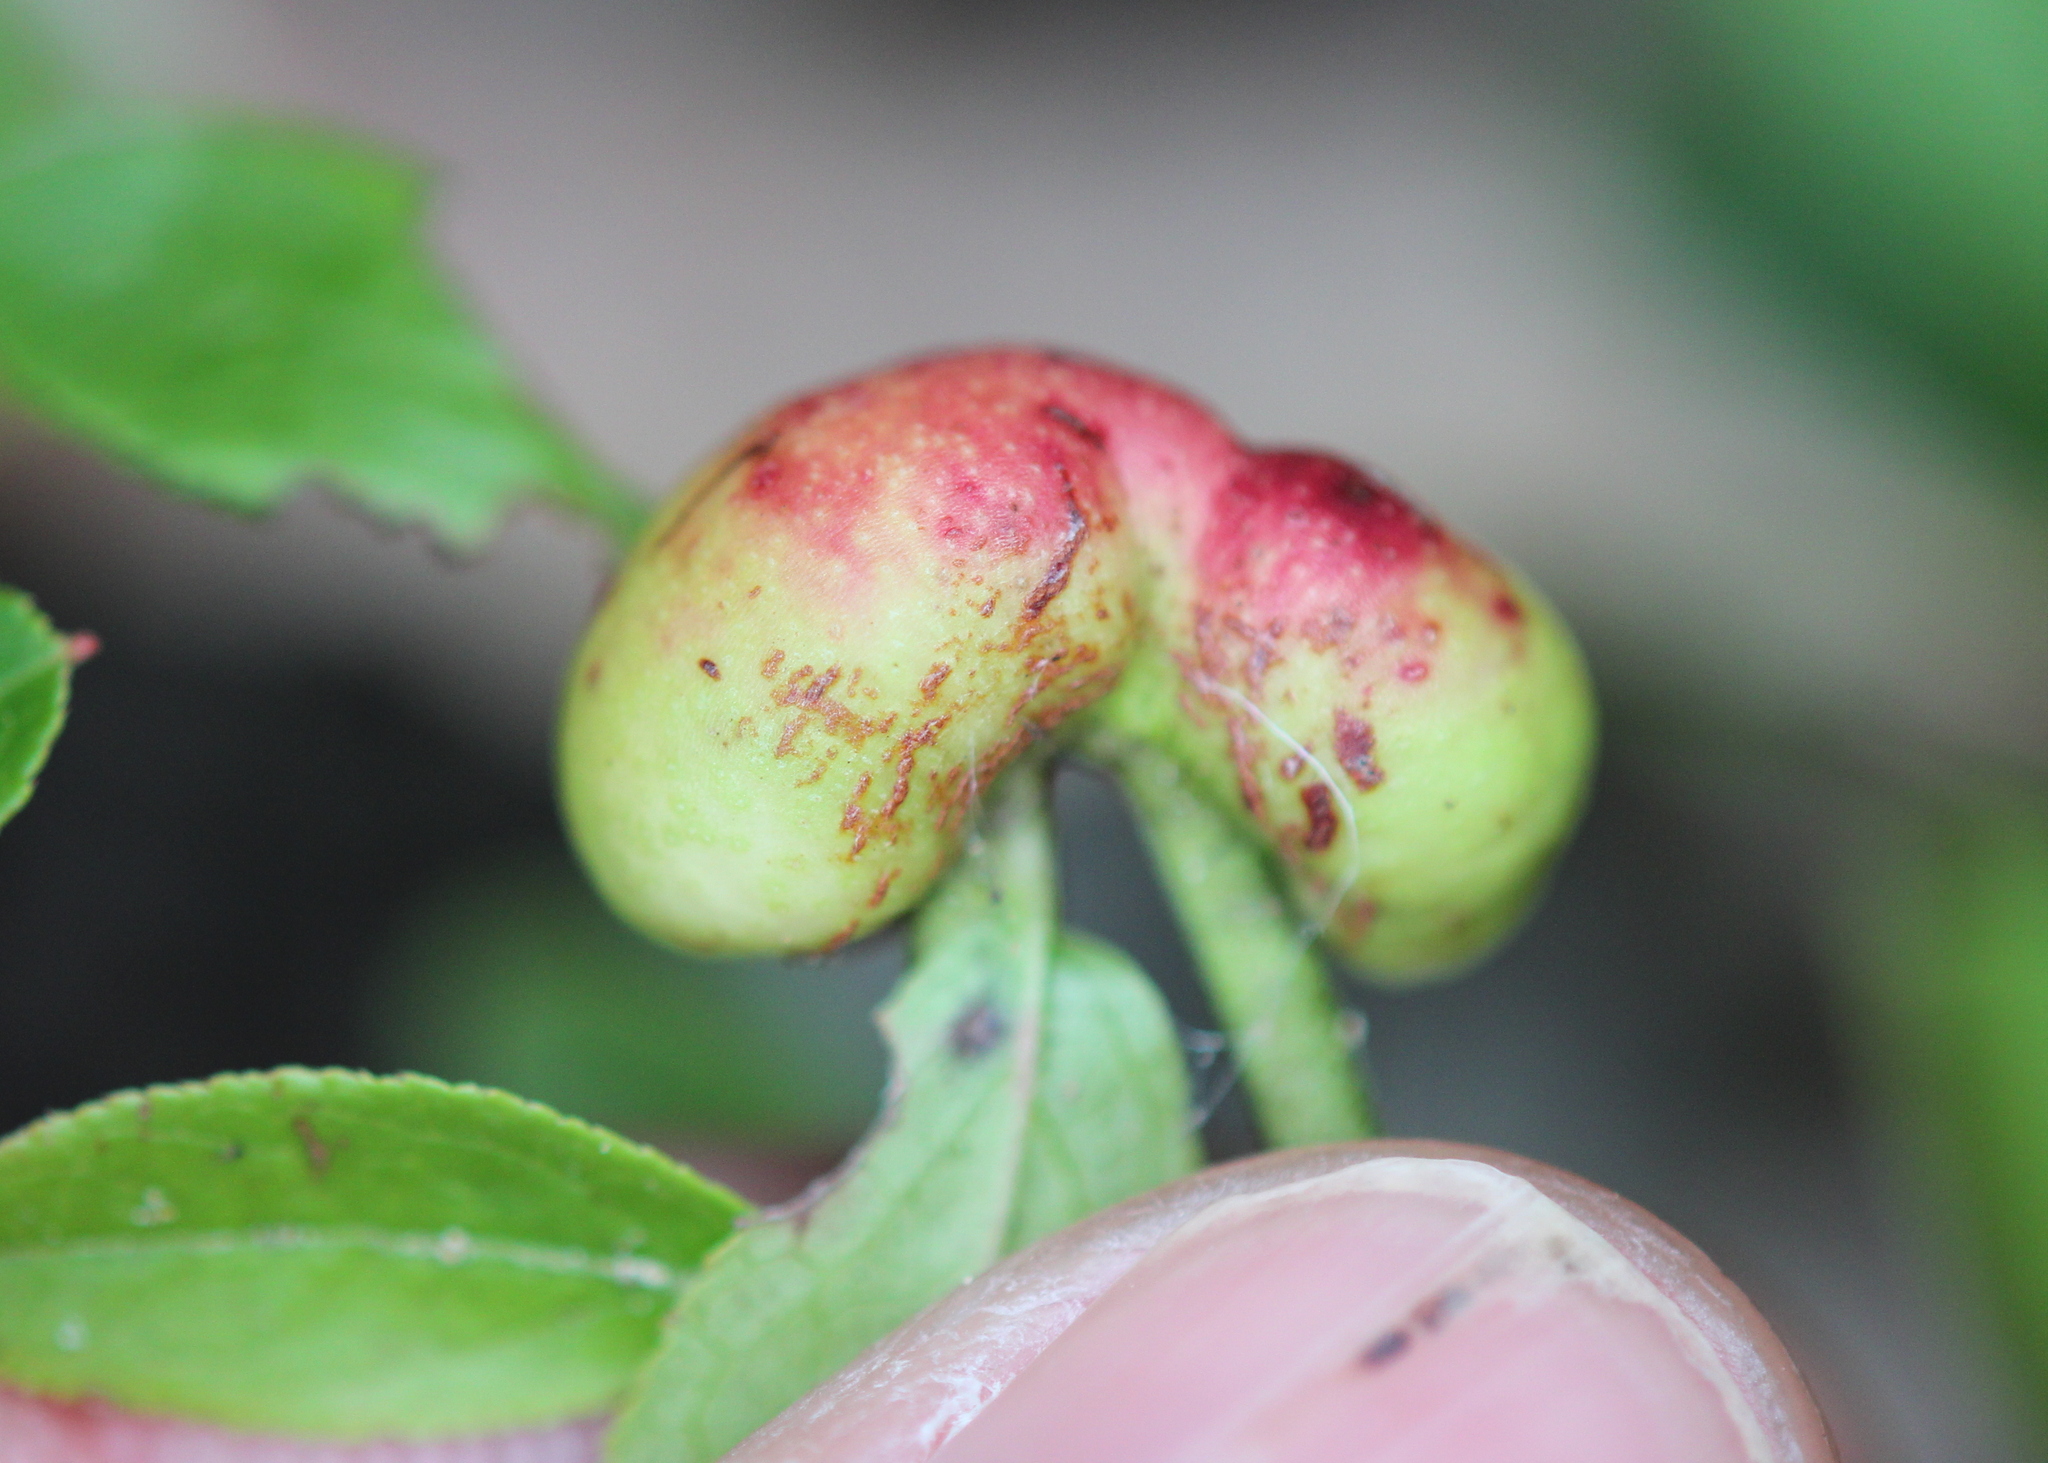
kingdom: Animalia
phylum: Arthropoda
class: Insecta
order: Hymenoptera
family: Pteromalidae
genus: Hemadas
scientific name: Hemadas nubilipennis
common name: Blueberry stem gall wasp
